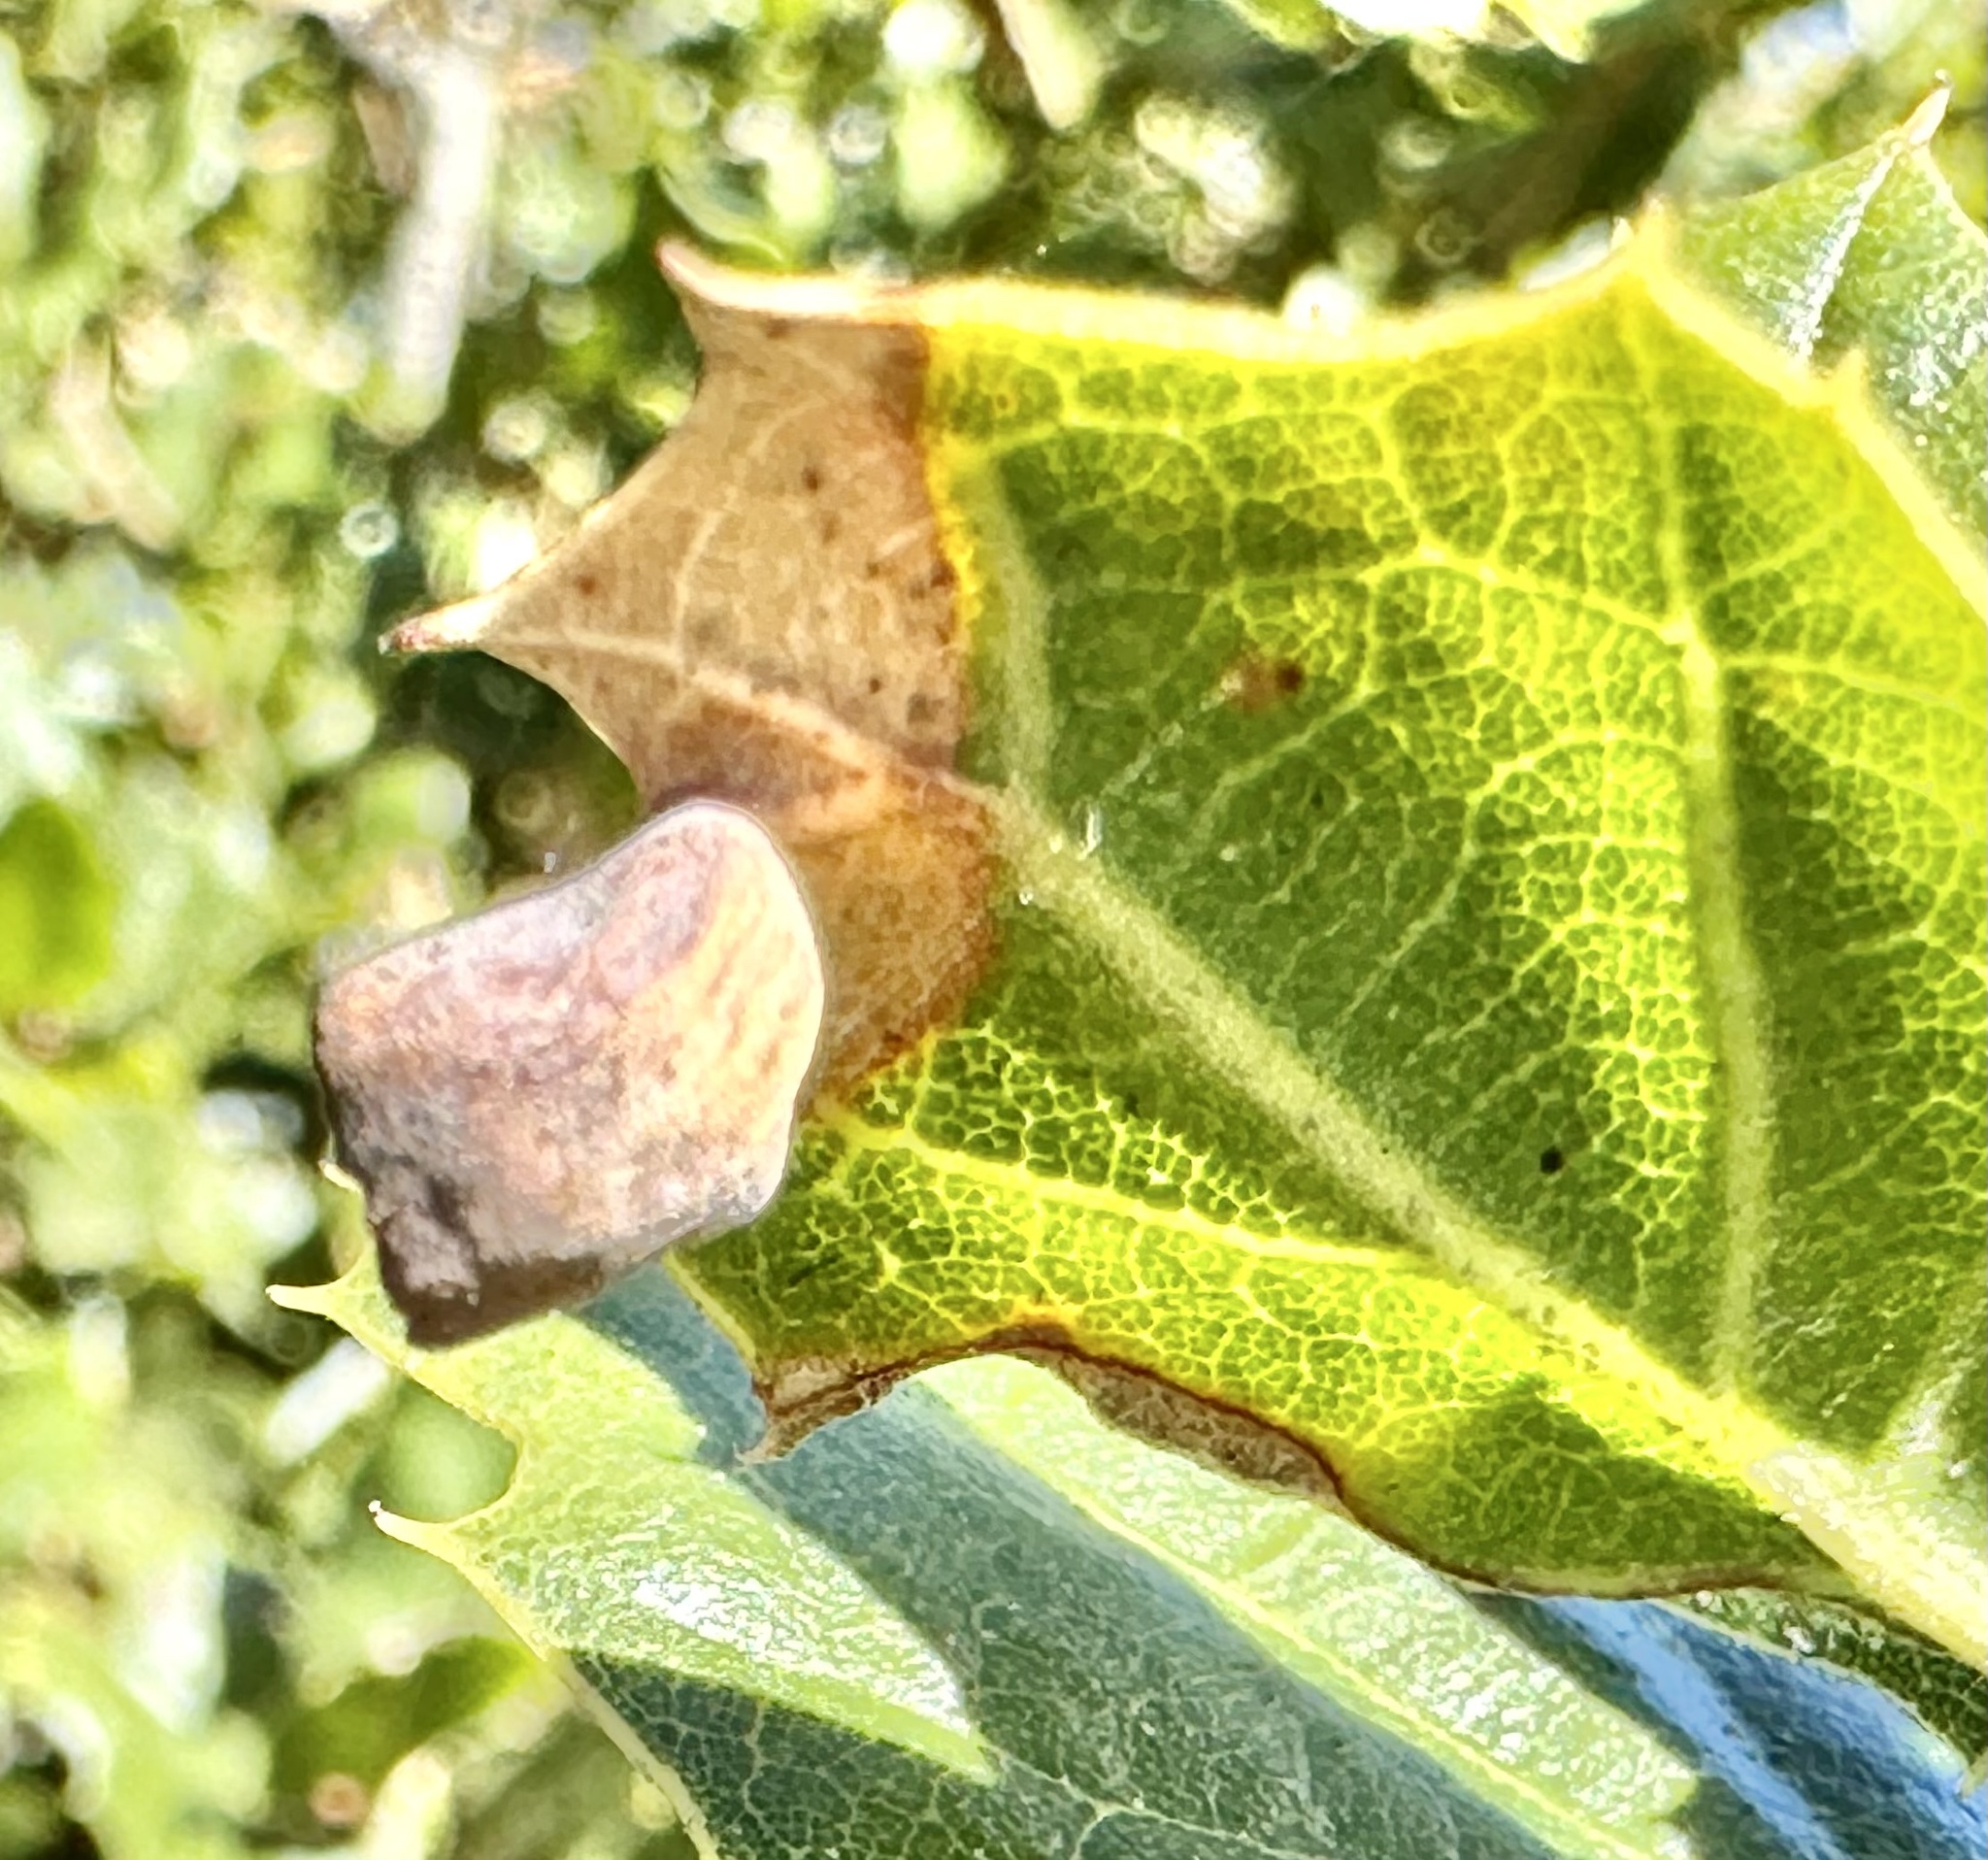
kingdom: Animalia
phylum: Arthropoda
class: Insecta
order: Hymenoptera
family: Cynipidae
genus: Amphibolips
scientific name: Amphibolips quercuspomiformis
